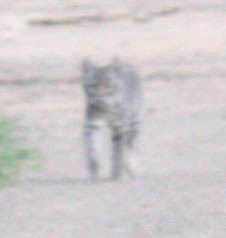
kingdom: Animalia
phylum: Chordata
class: Mammalia
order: Carnivora
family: Felidae
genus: Lynx
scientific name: Lynx rufus
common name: Bobcat
